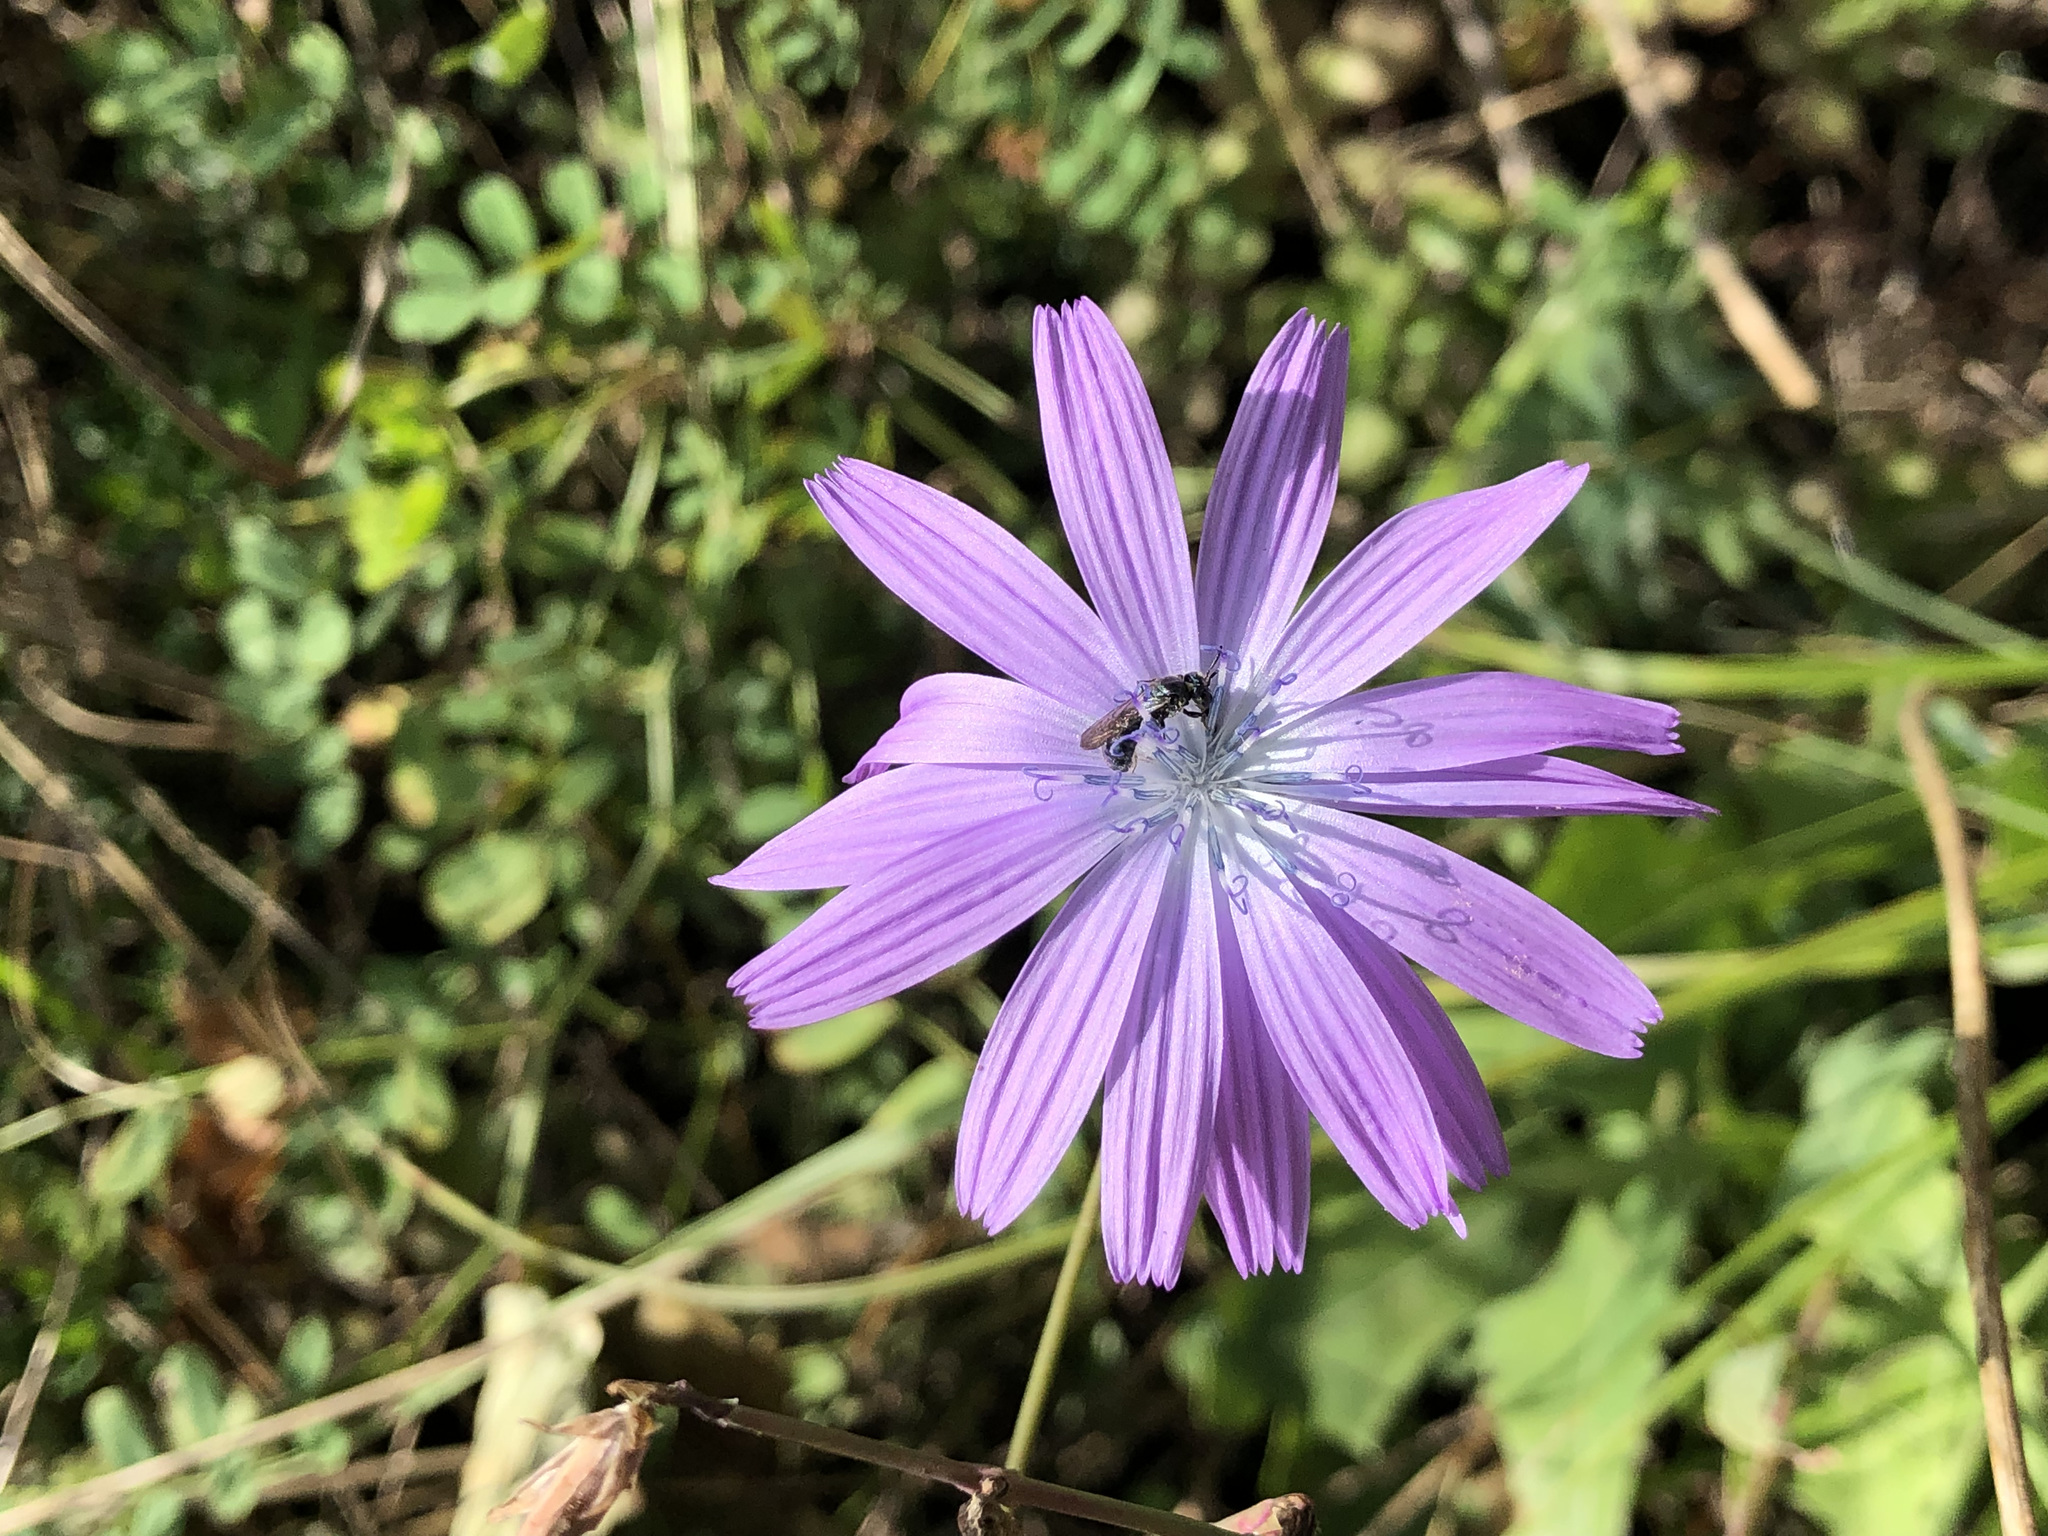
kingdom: Plantae
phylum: Tracheophyta
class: Magnoliopsida
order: Asterales
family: Asteraceae
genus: Lactuca
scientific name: Lactuca perennis
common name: Mountain lettuce
